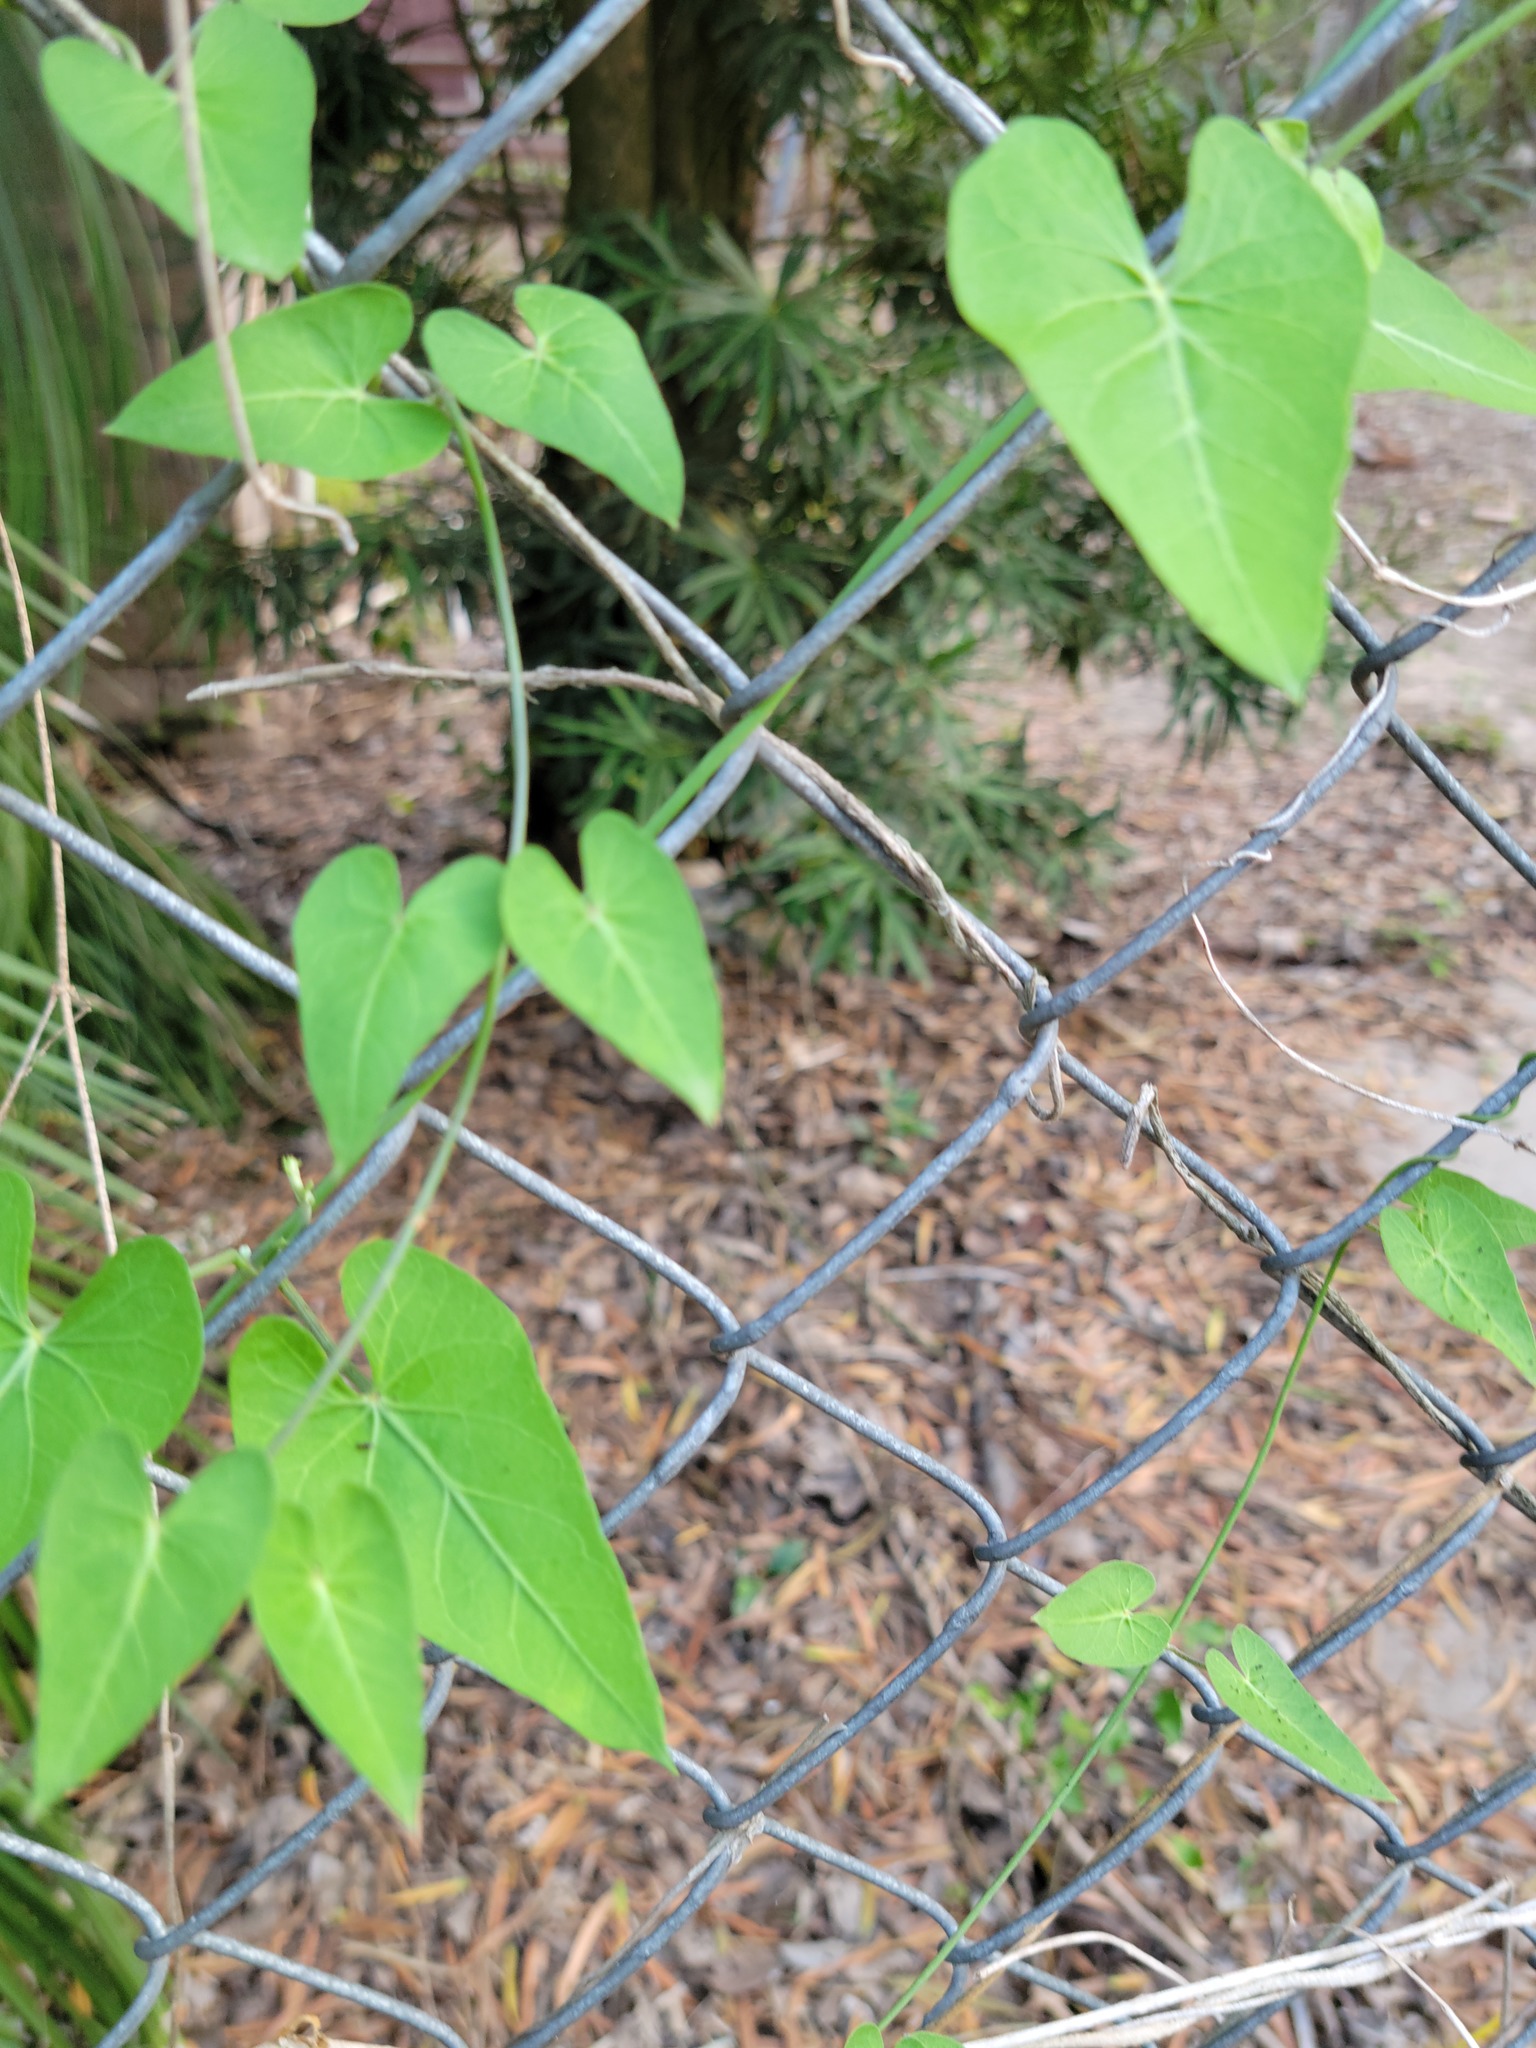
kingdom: Plantae
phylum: Tracheophyta
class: Magnoliopsida
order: Gentianales
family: Apocynaceae
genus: Funastrum
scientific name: Funastrum cynanchoides
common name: Climbing-milkweed
